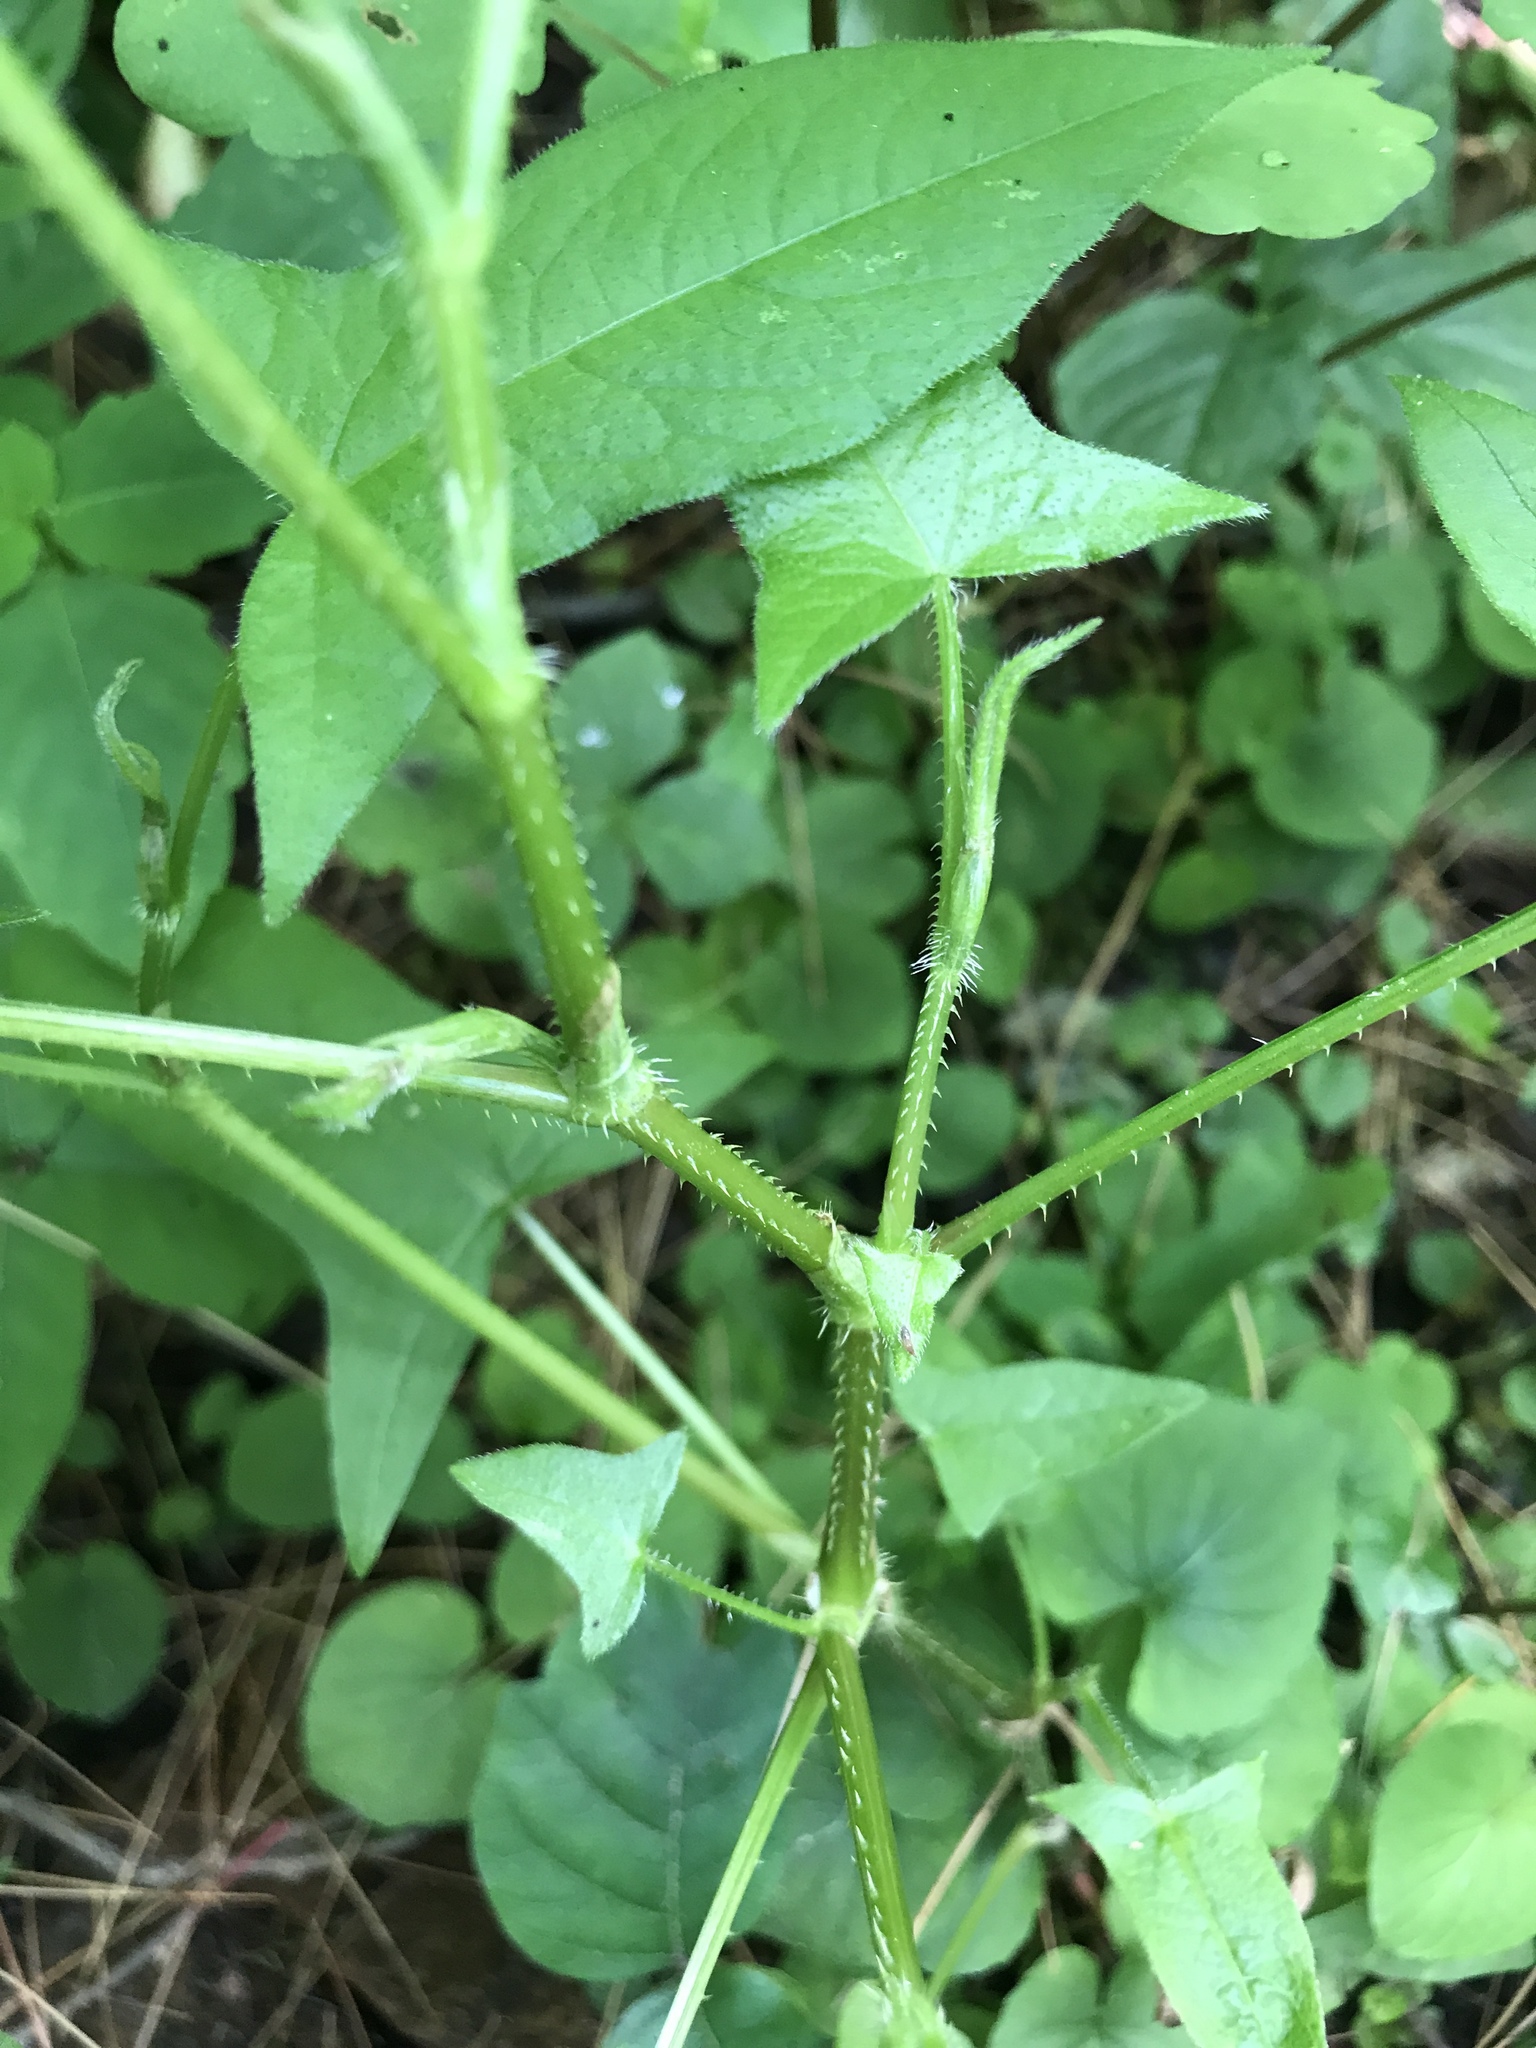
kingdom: Plantae
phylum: Tracheophyta
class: Magnoliopsida
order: Caryophyllales
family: Polygonaceae
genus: Persicaria
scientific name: Persicaria arifolia
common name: Halberd-leaved tear-thumb
